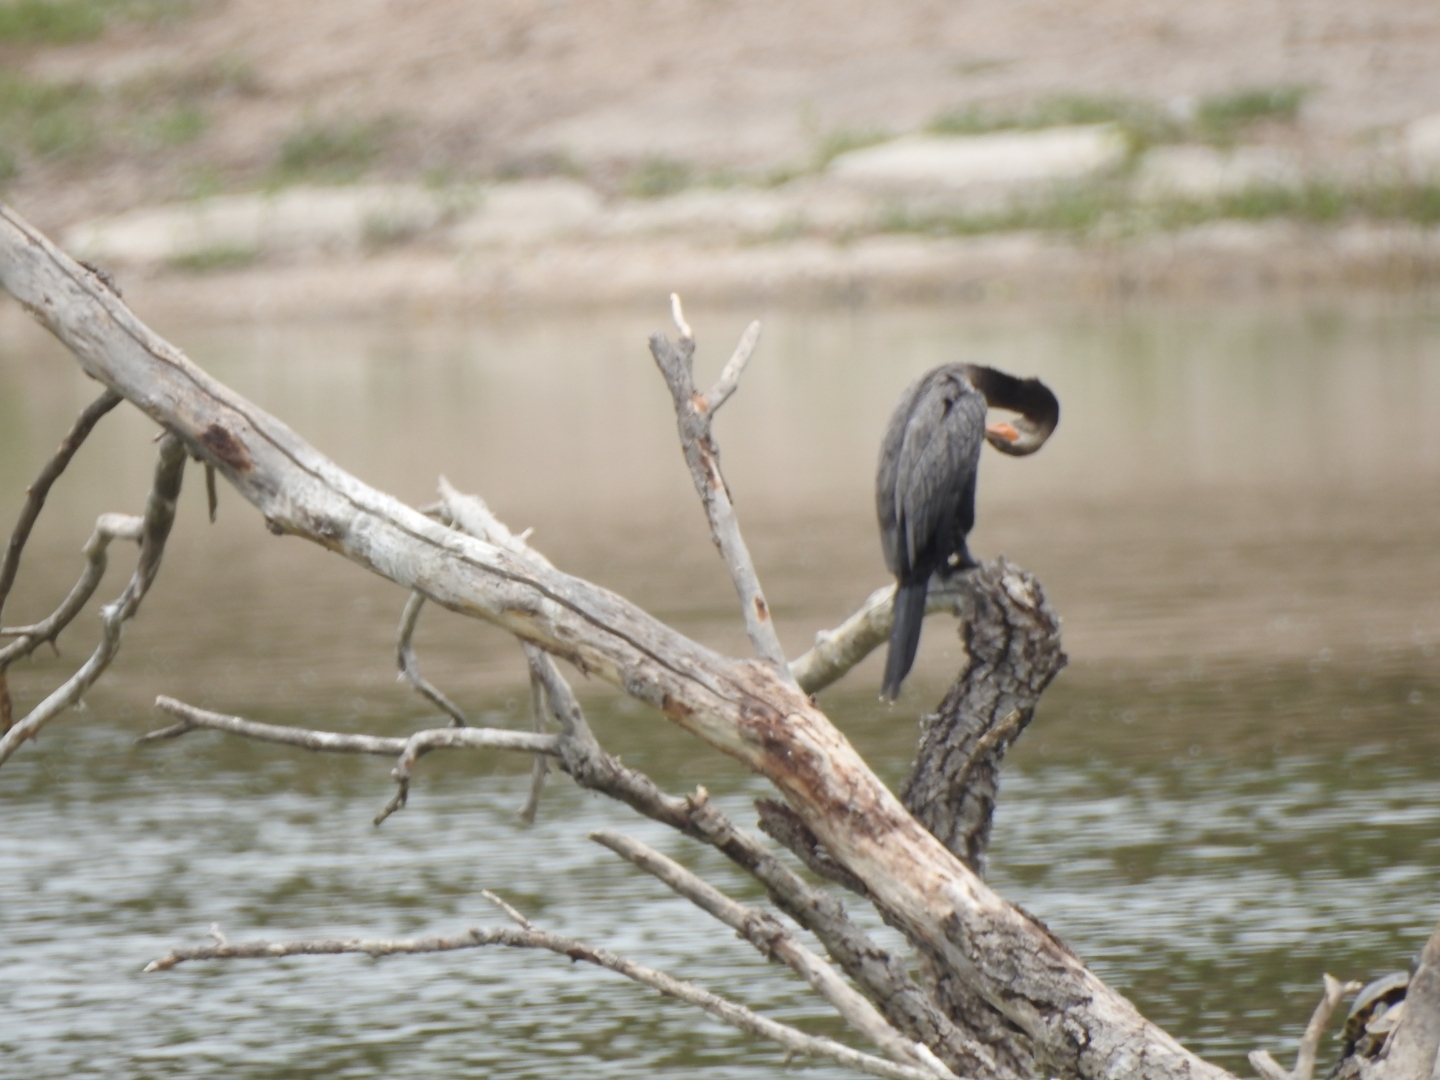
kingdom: Animalia
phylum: Chordata
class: Aves
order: Suliformes
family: Phalacrocoracidae
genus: Phalacrocorax
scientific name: Phalacrocorax brasilianus
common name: Neotropic cormorant
